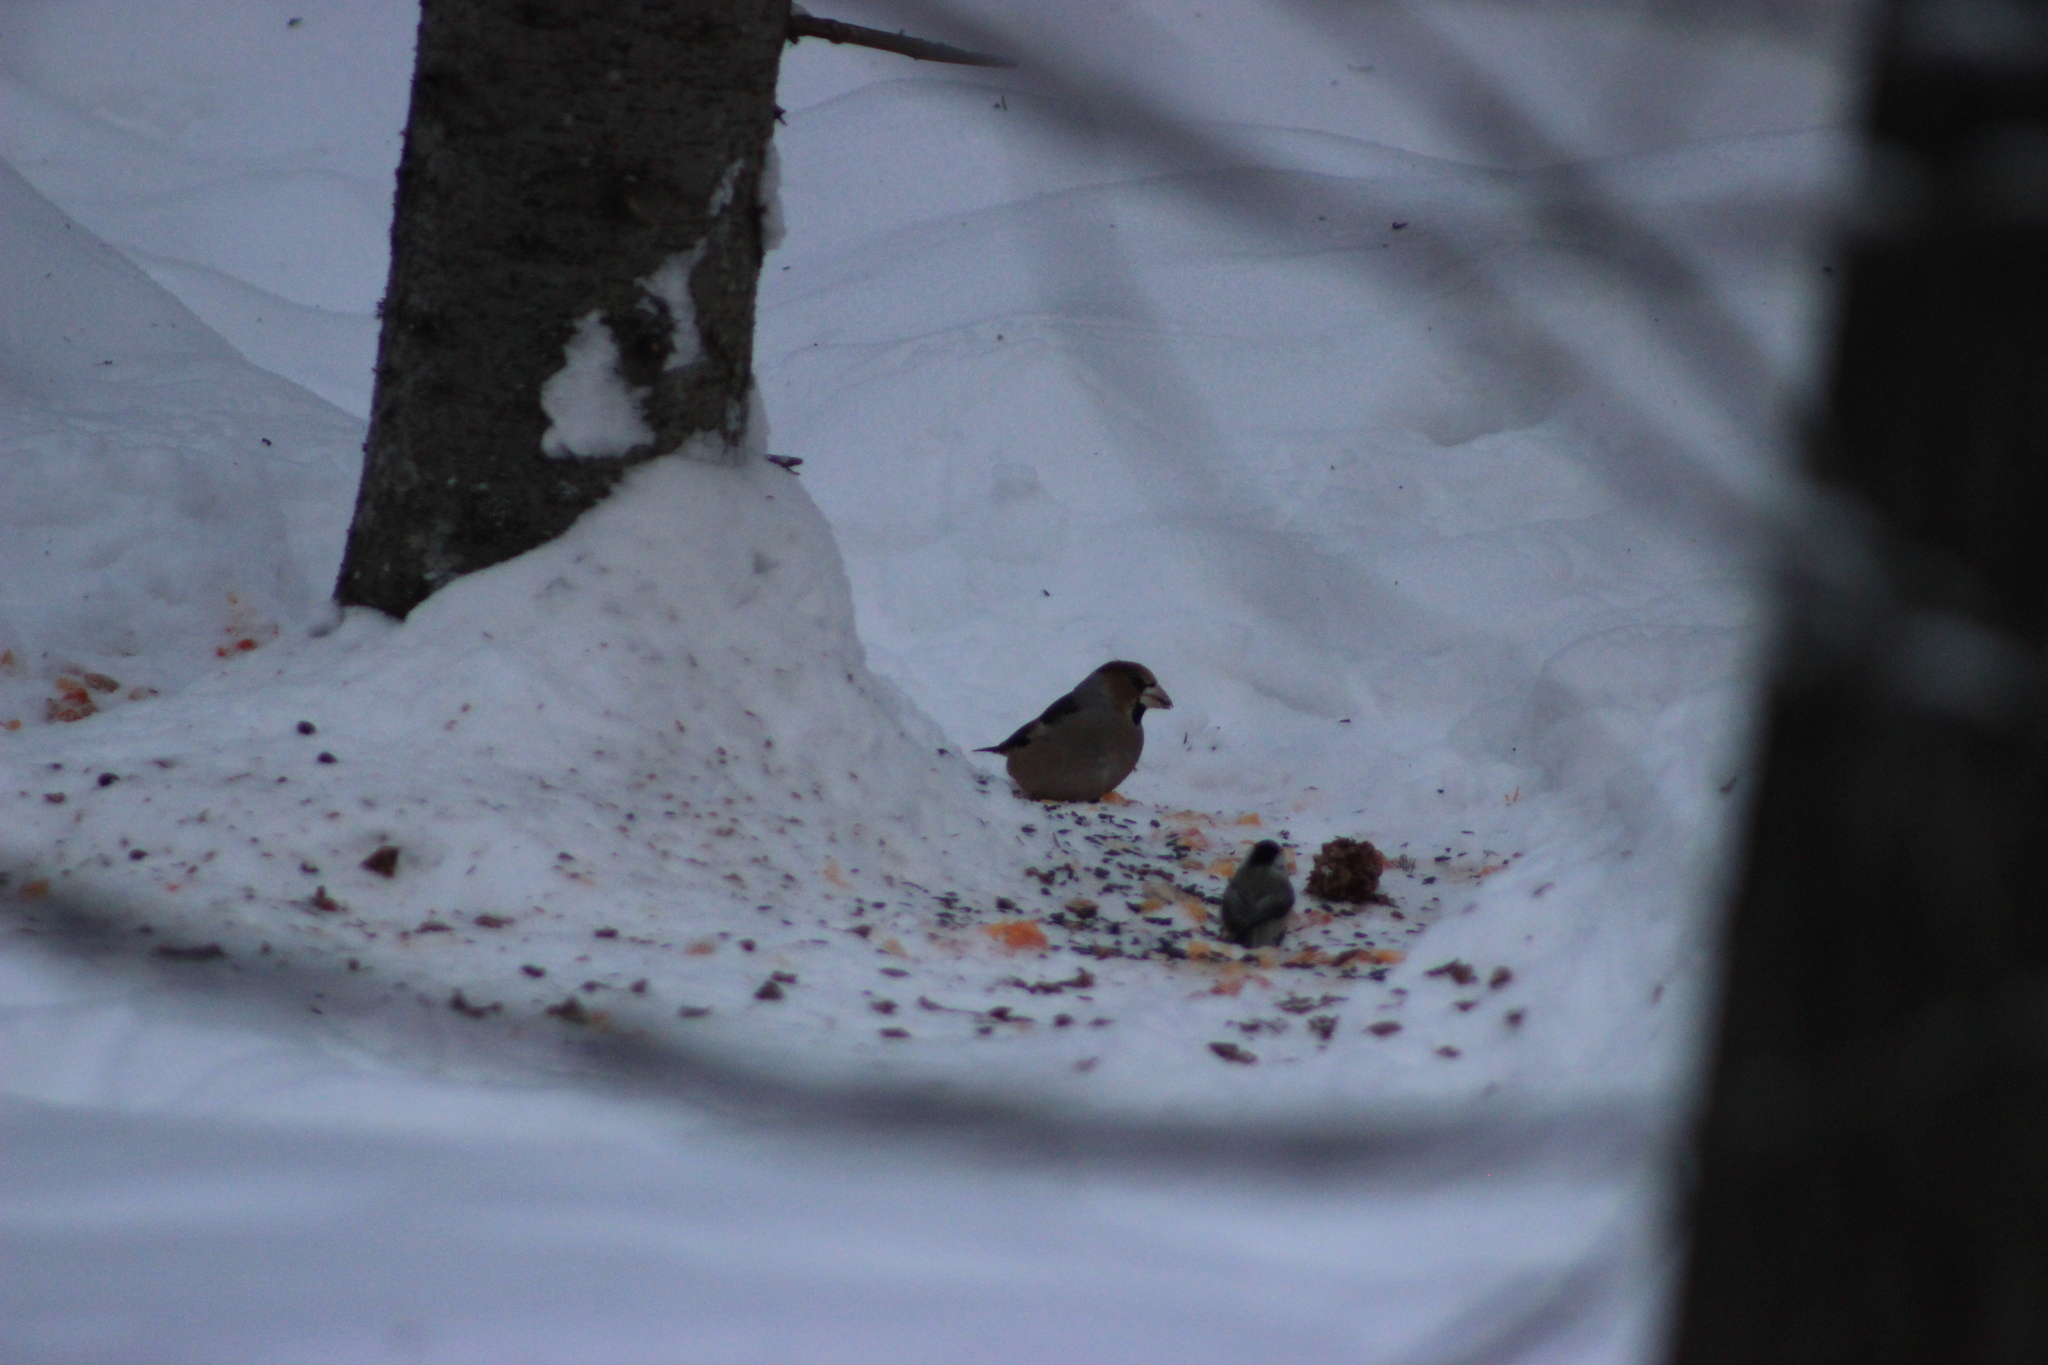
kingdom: Animalia
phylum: Chordata
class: Aves
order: Passeriformes
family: Fringillidae
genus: Coccothraustes
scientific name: Coccothraustes coccothraustes
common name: Hawfinch
